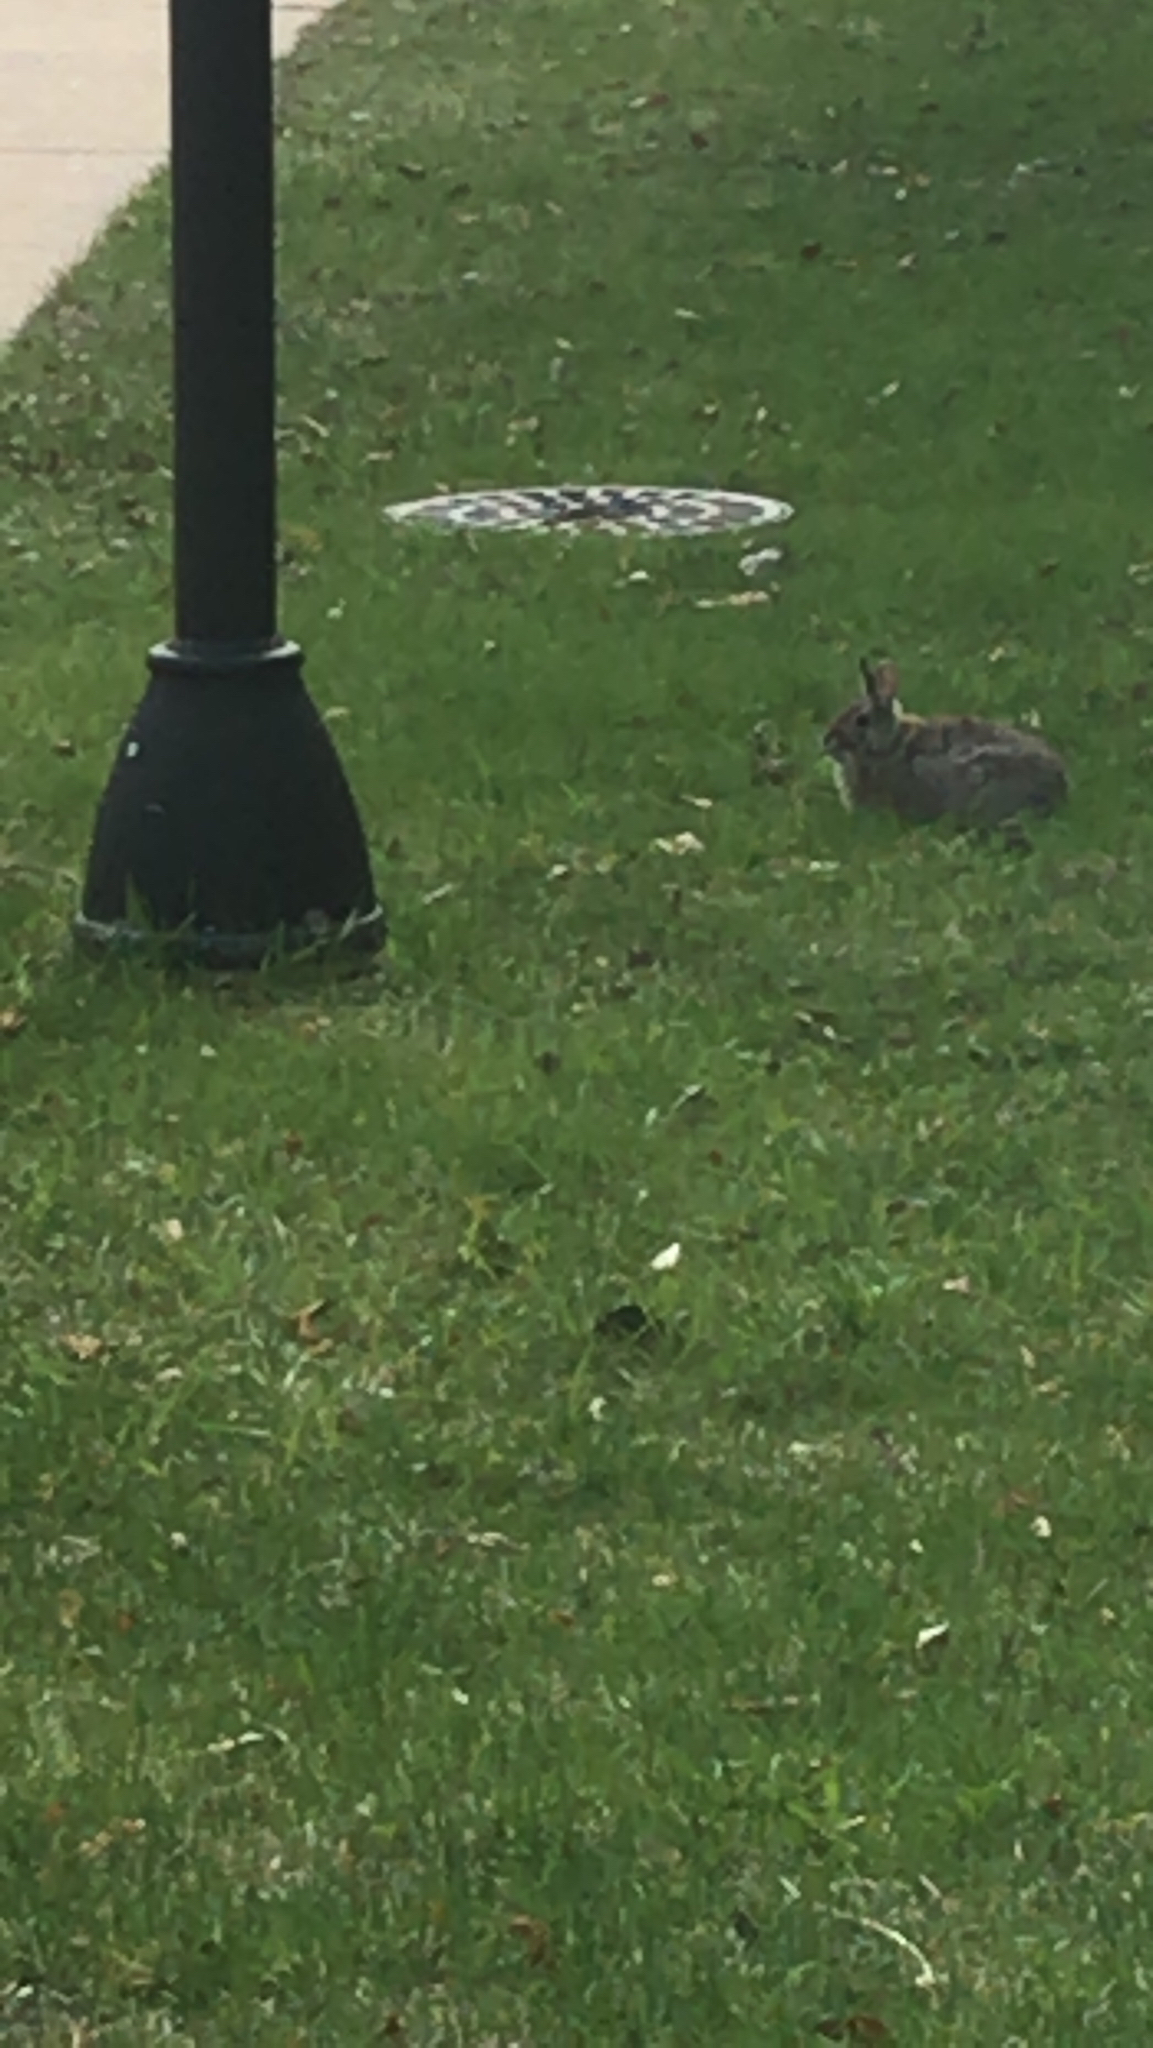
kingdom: Animalia
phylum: Chordata
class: Mammalia
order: Lagomorpha
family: Leporidae
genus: Sylvilagus
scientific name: Sylvilagus floridanus
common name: Eastern cottontail
